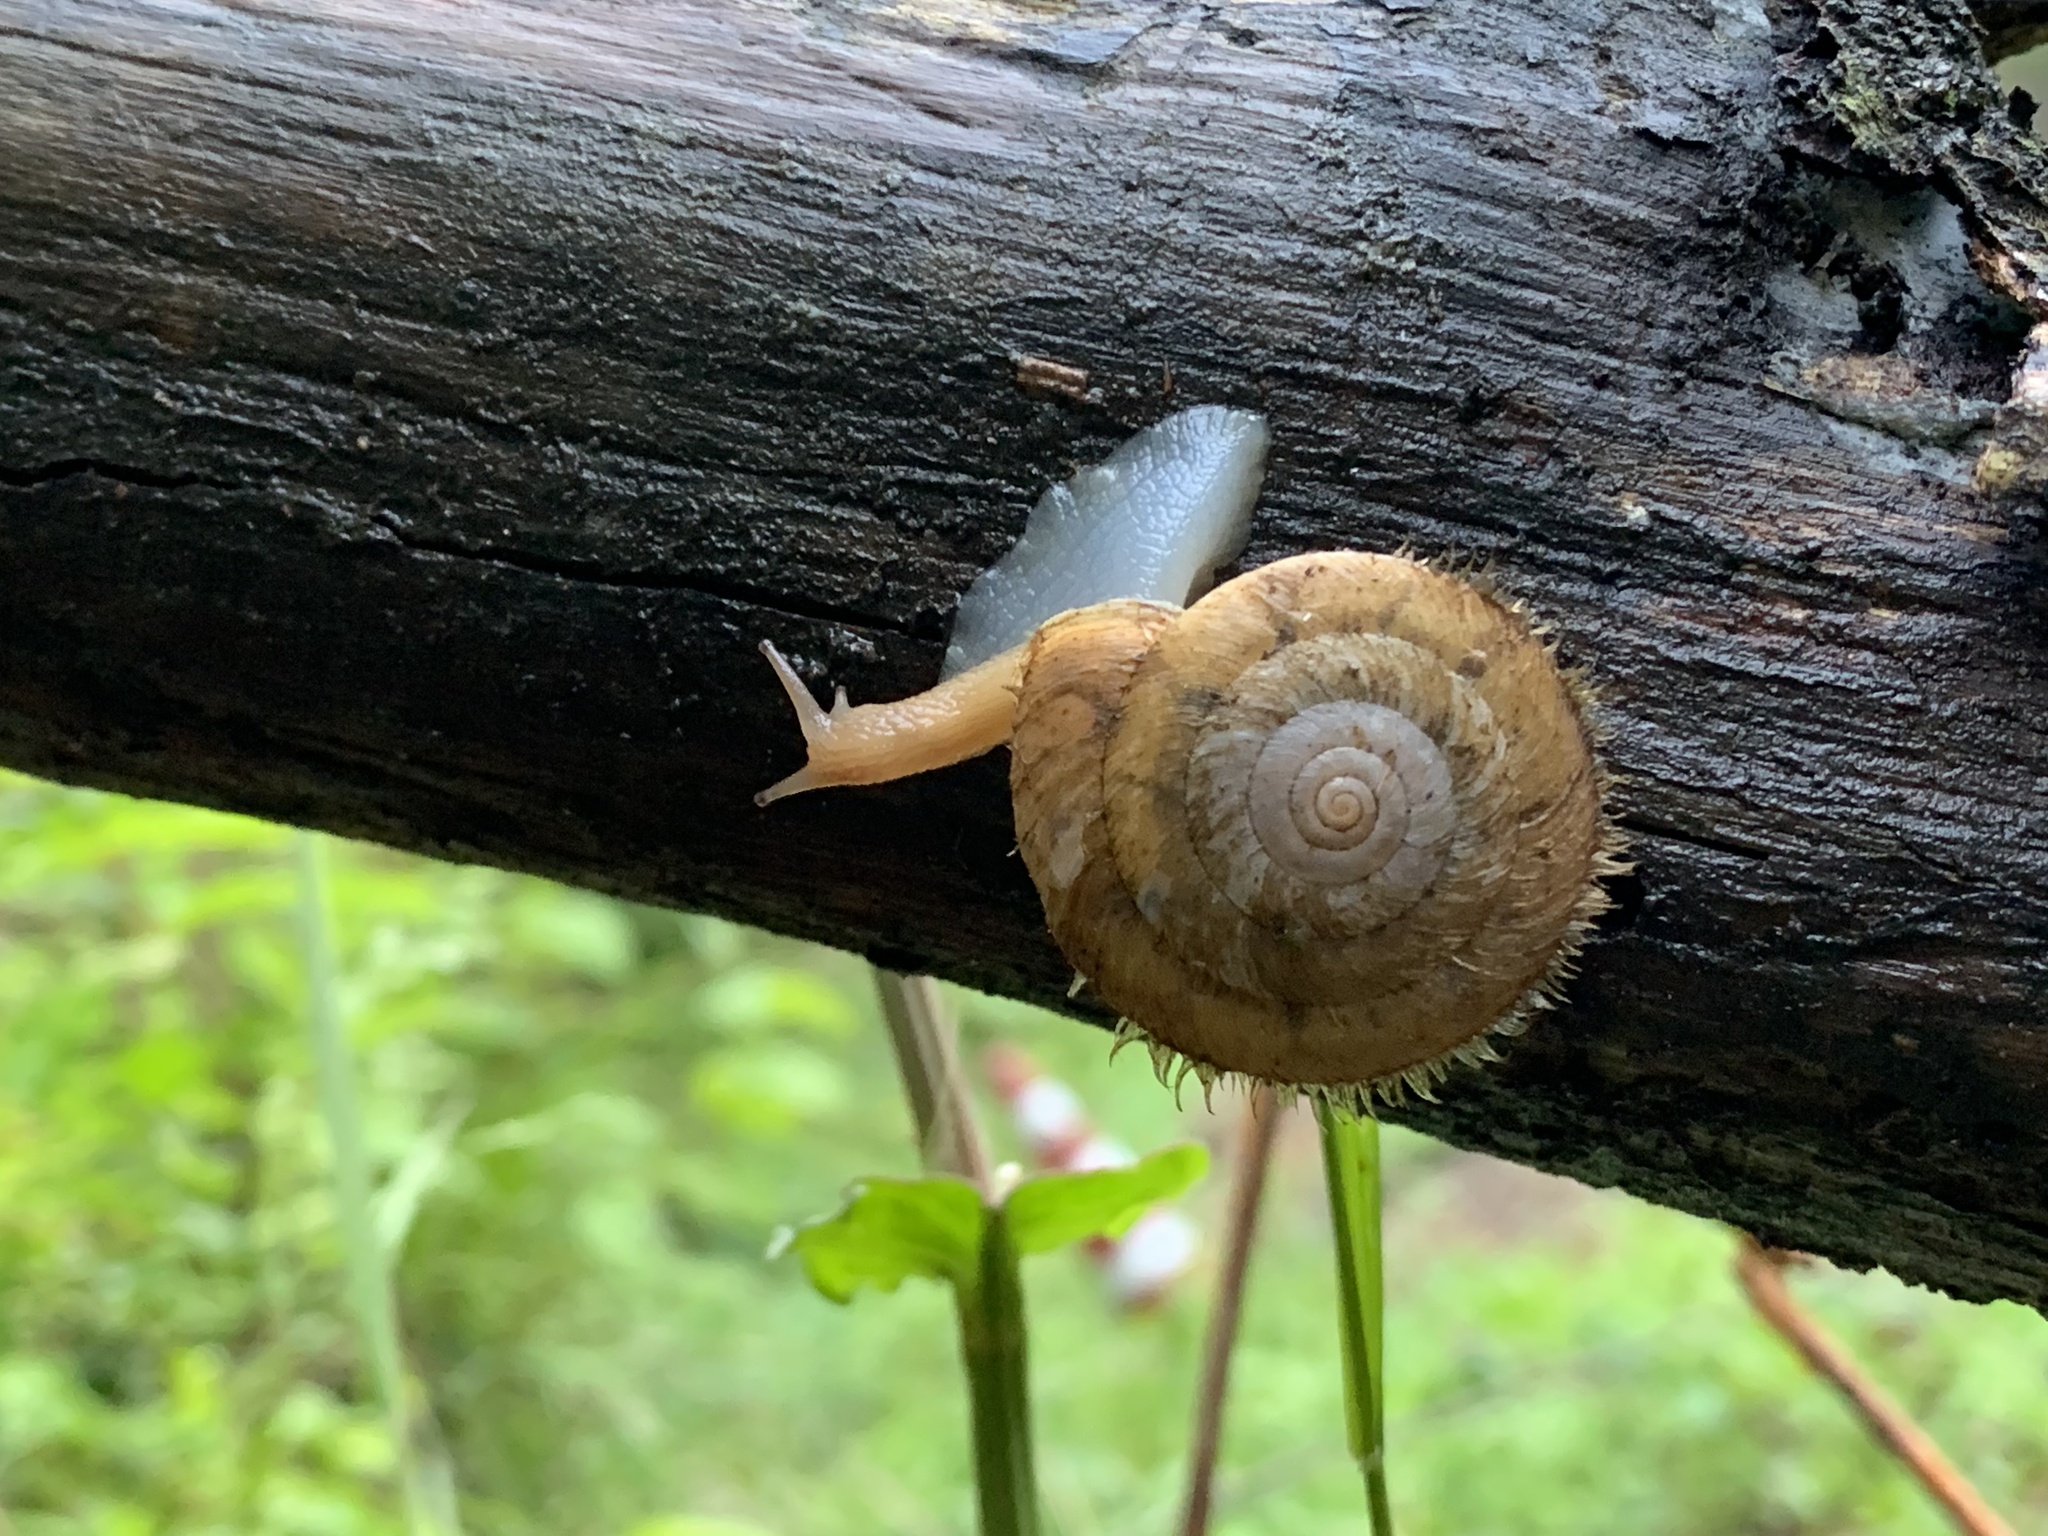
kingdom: Animalia
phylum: Mollusca
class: Gastropoda
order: Stylommatophora
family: Camaenidae
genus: Plectotropis
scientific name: Plectotropis vulgivaga
